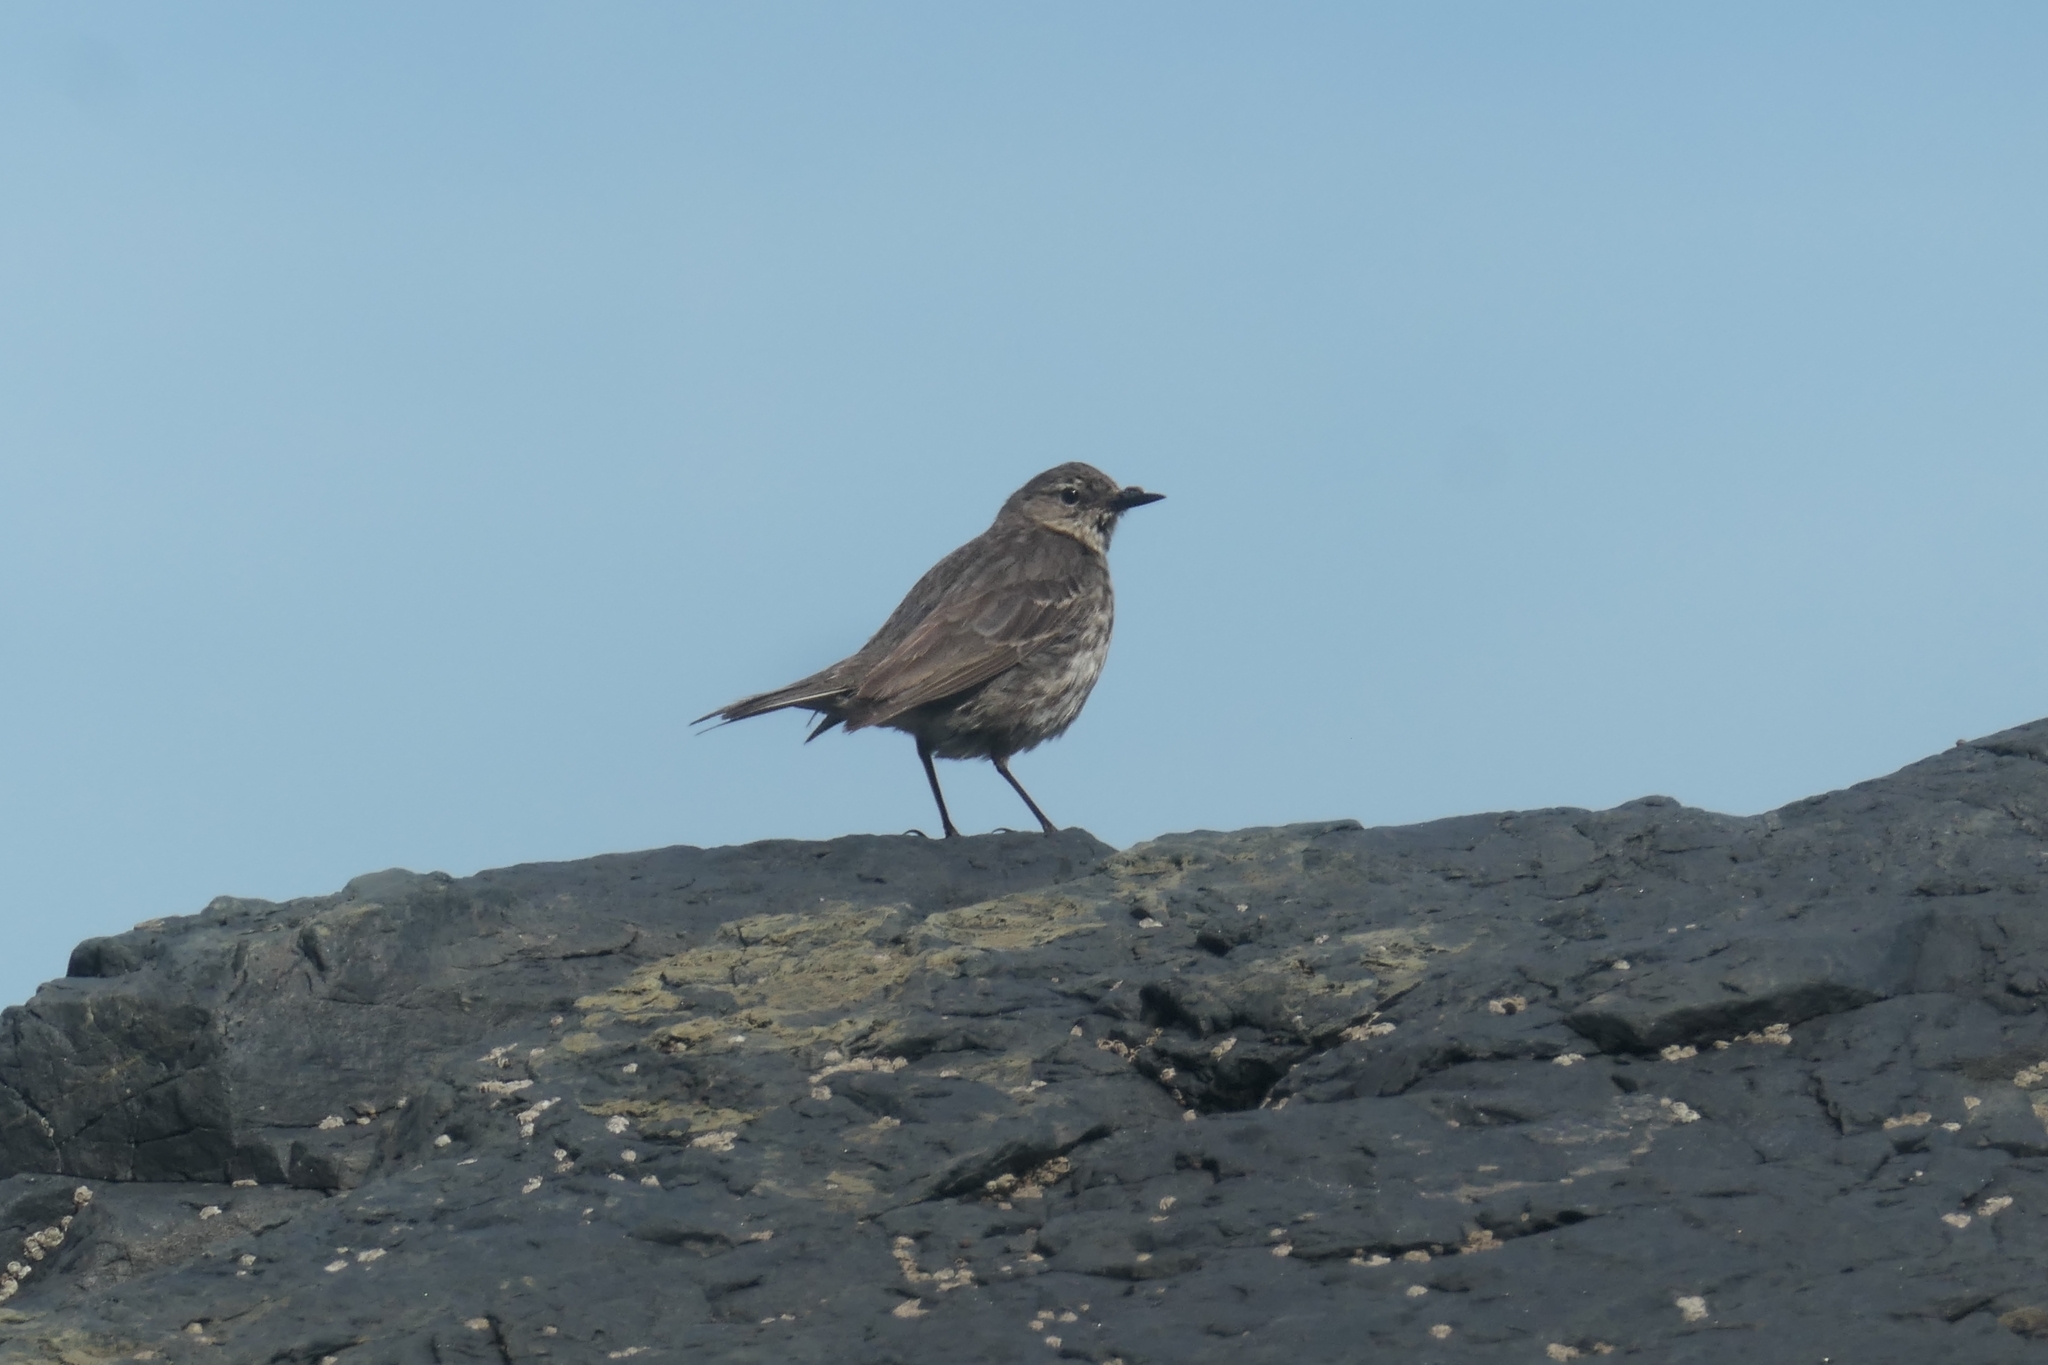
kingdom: Animalia
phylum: Chordata
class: Aves
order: Passeriformes
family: Motacillidae
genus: Anthus
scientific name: Anthus petrosus
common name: Eurasian rock pipit
